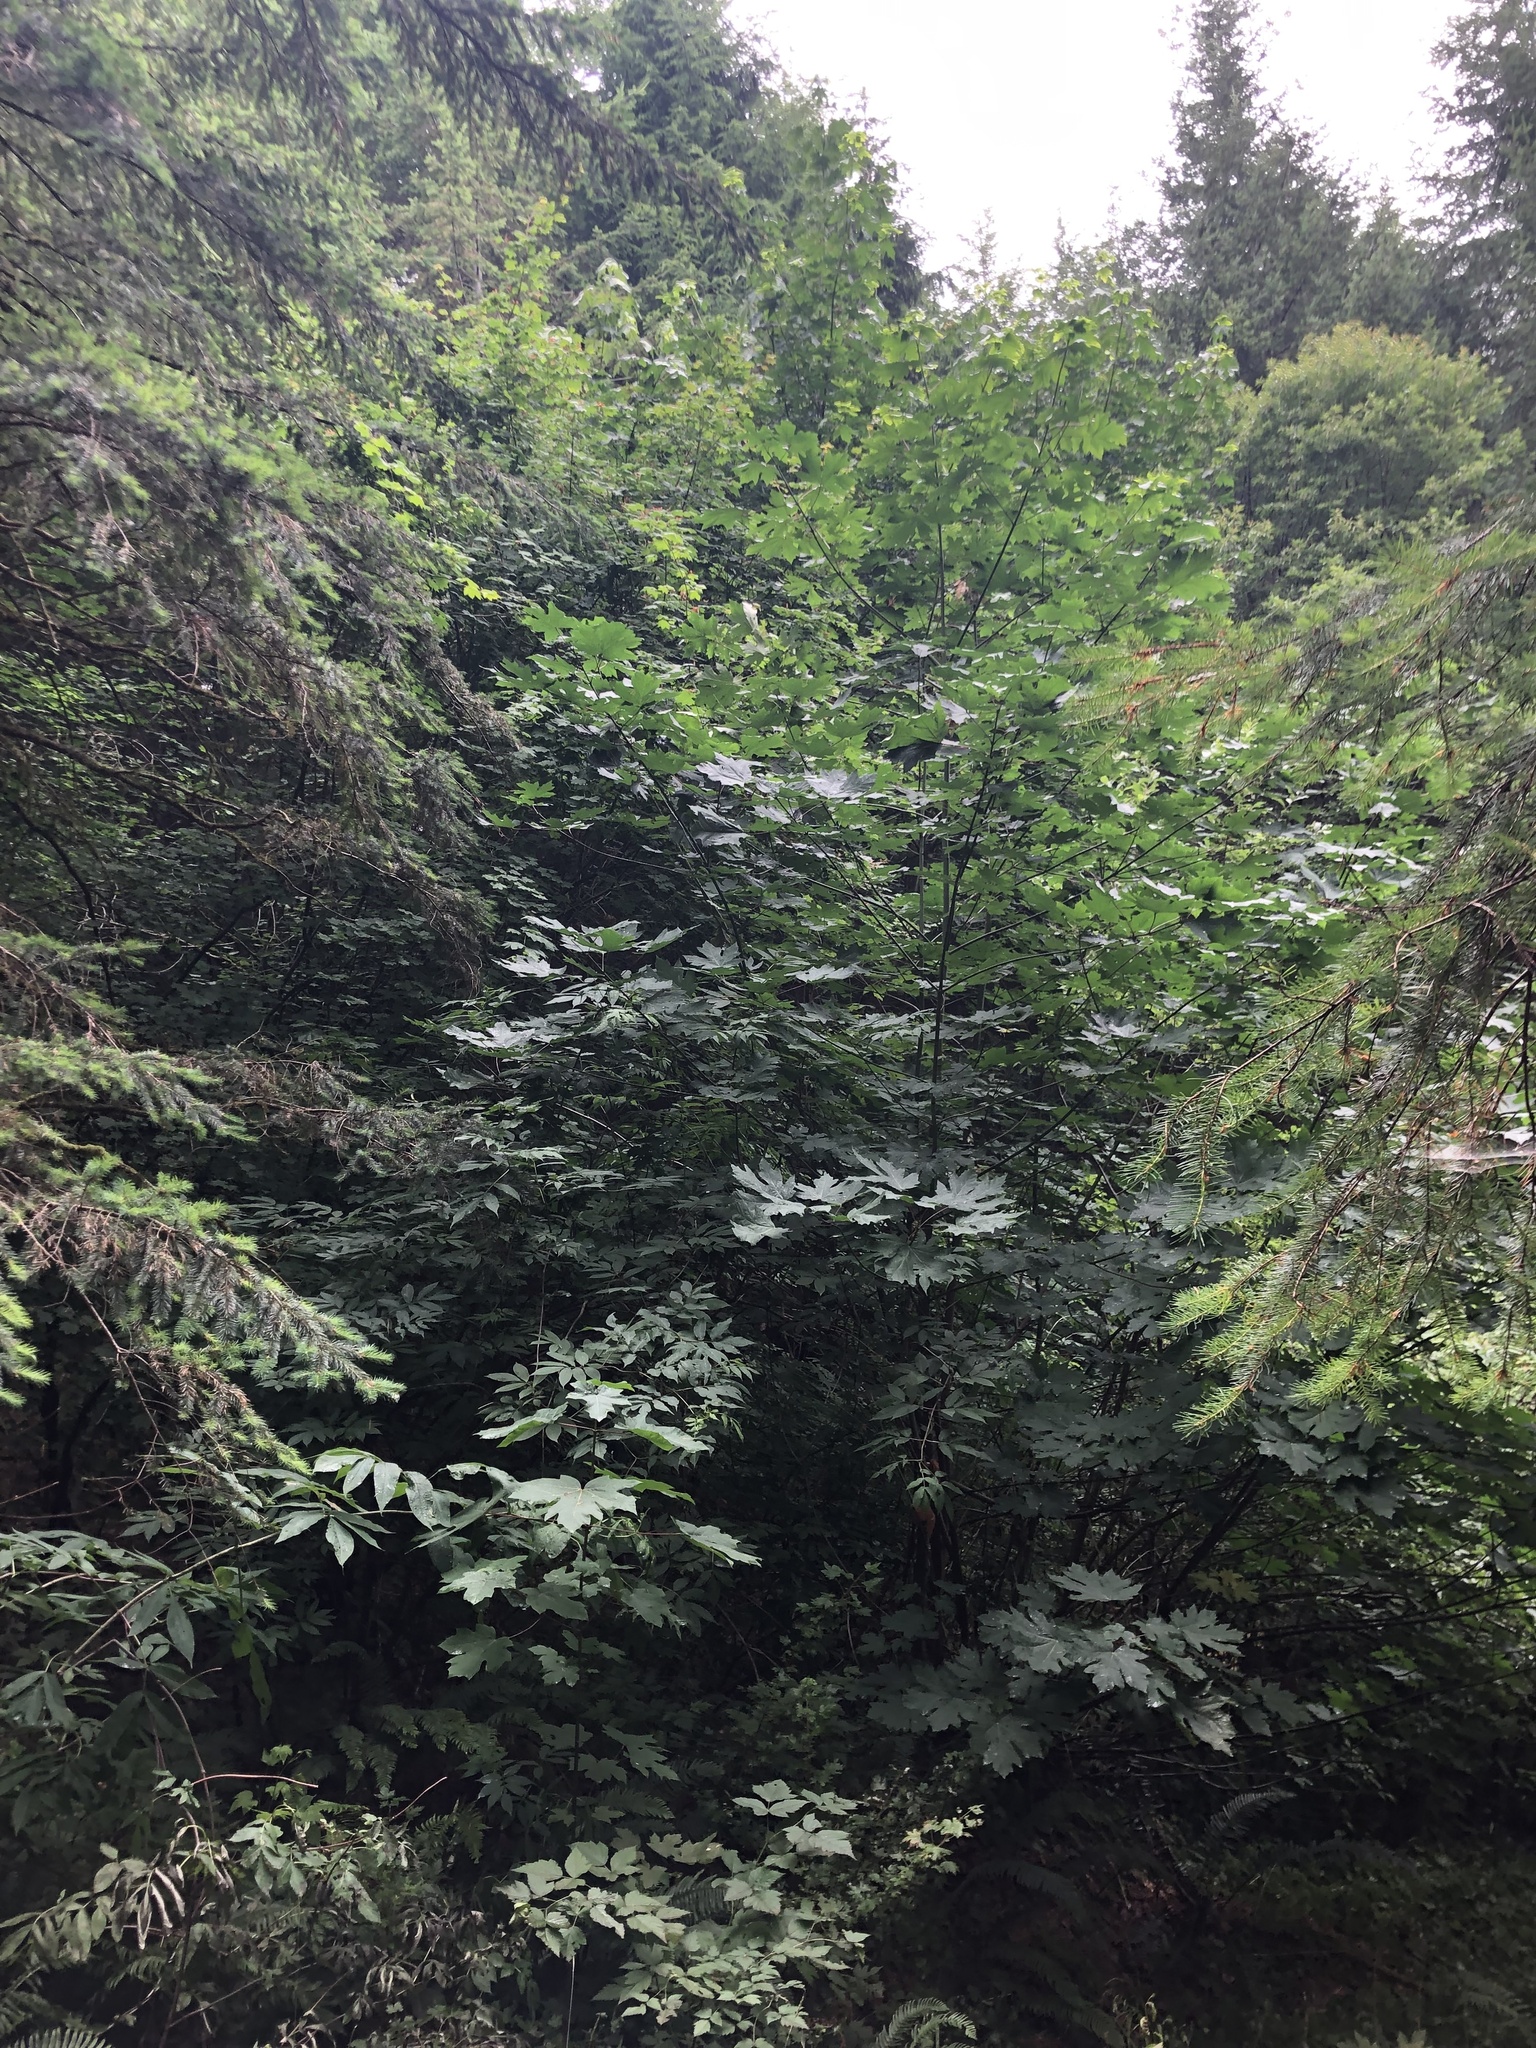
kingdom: Plantae
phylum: Tracheophyta
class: Magnoliopsida
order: Sapindales
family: Sapindaceae
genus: Acer
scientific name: Acer macrophyllum
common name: Oregon maple
